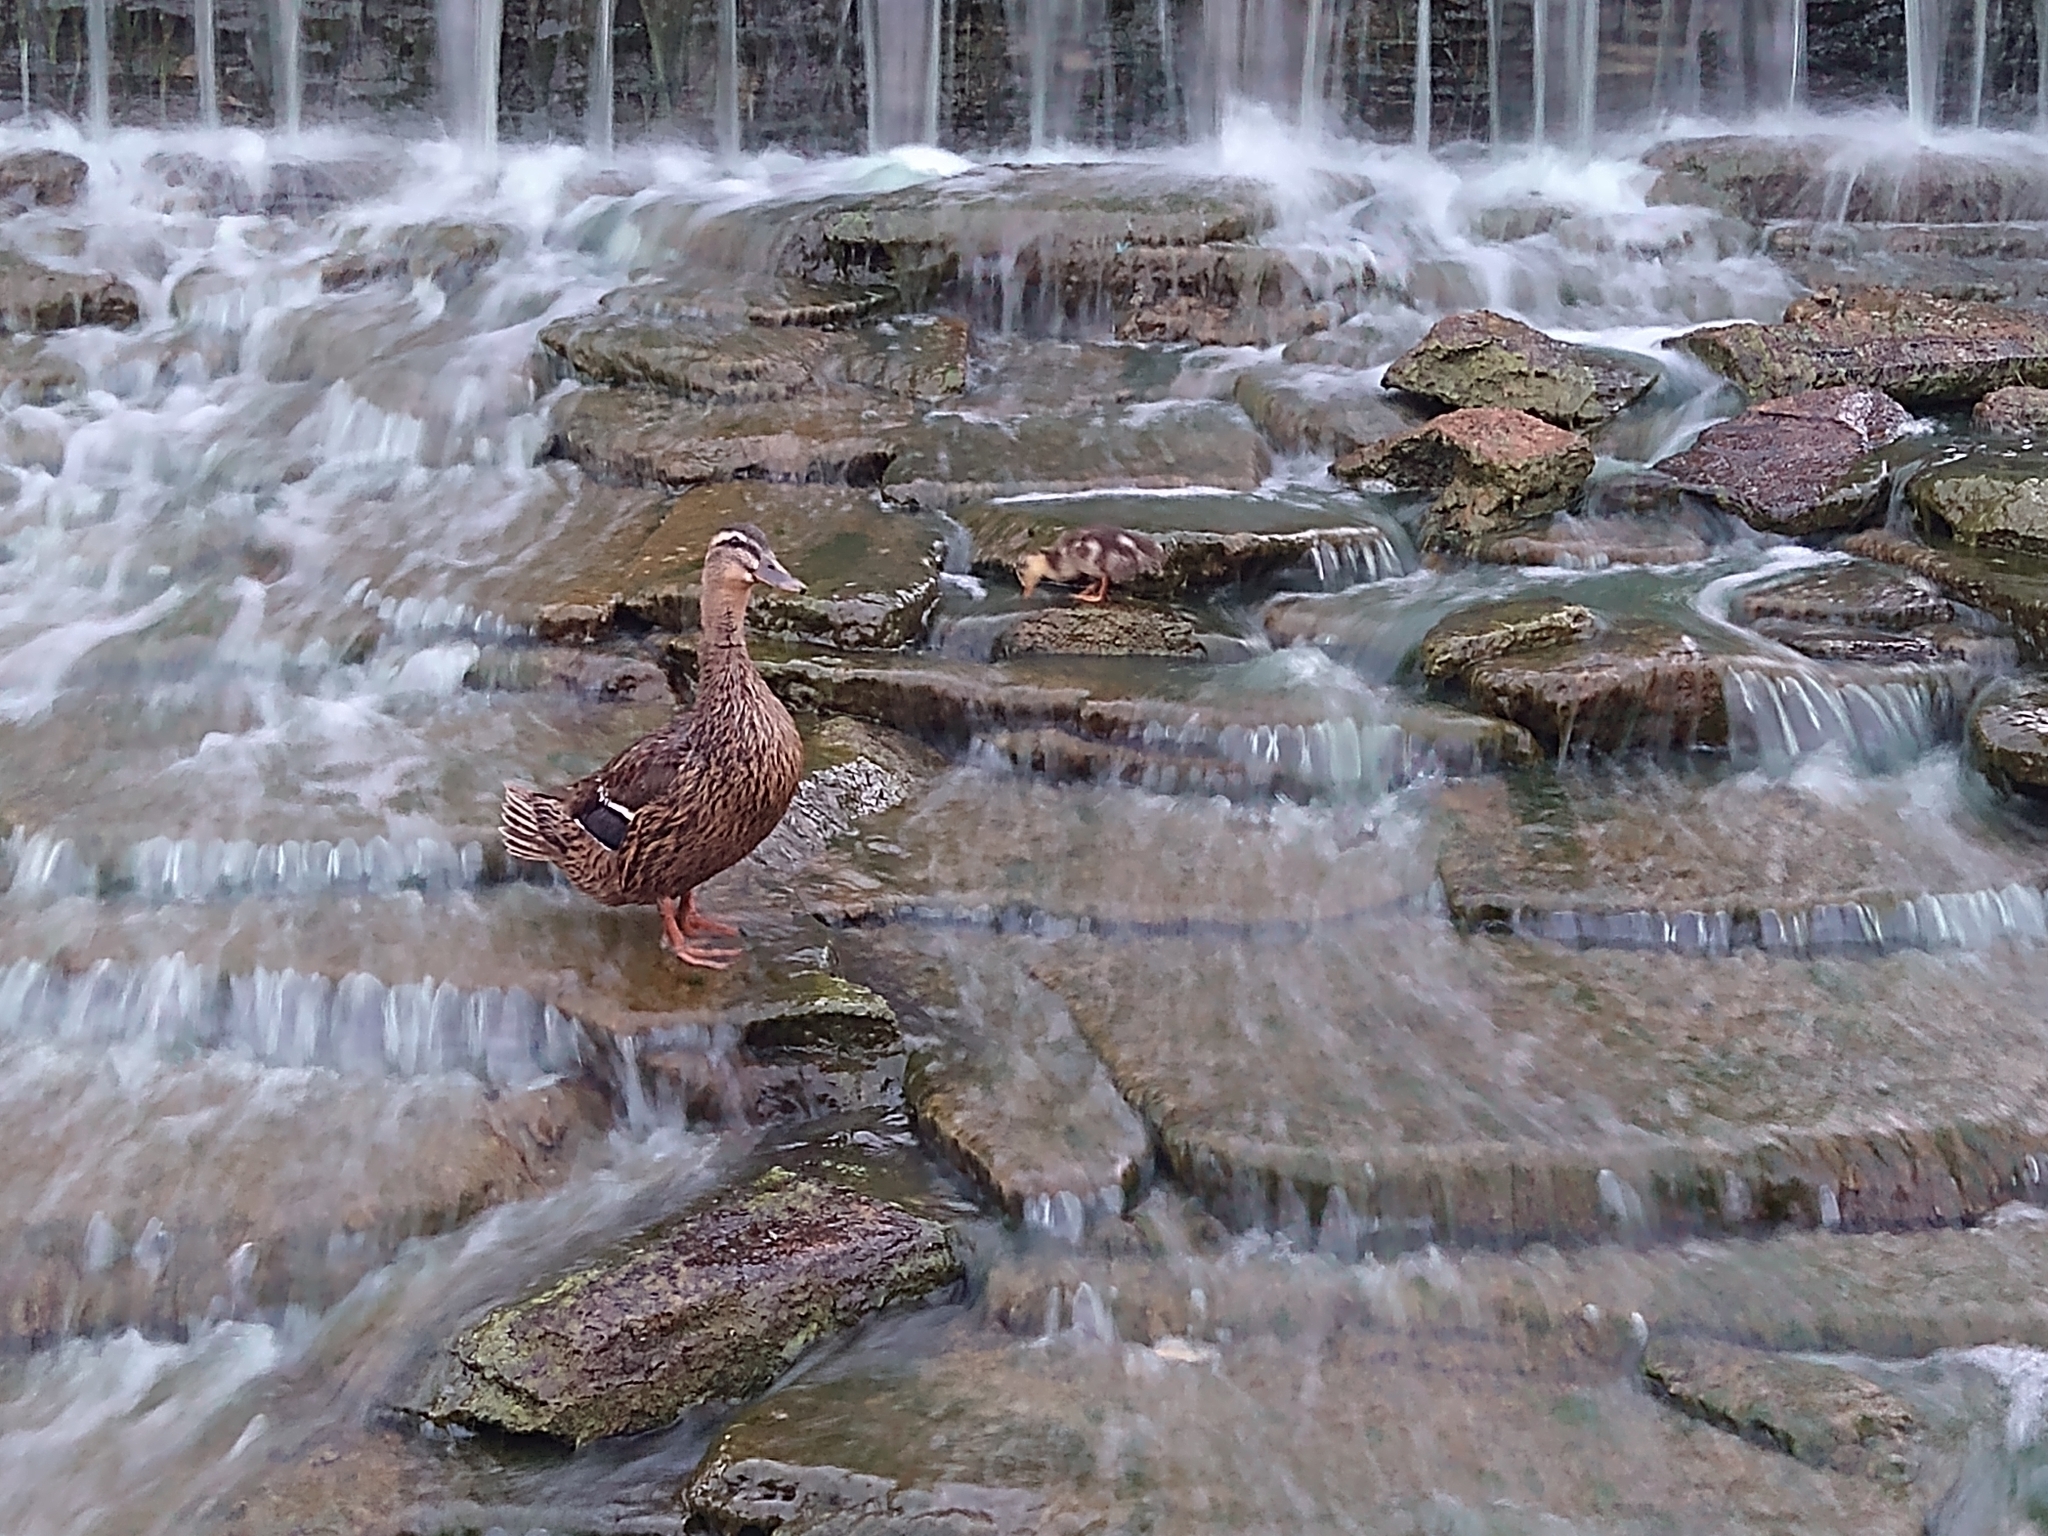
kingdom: Animalia
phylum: Chordata
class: Aves
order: Anseriformes
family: Anatidae
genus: Anas
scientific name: Anas platyrhynchos
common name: Mallard
